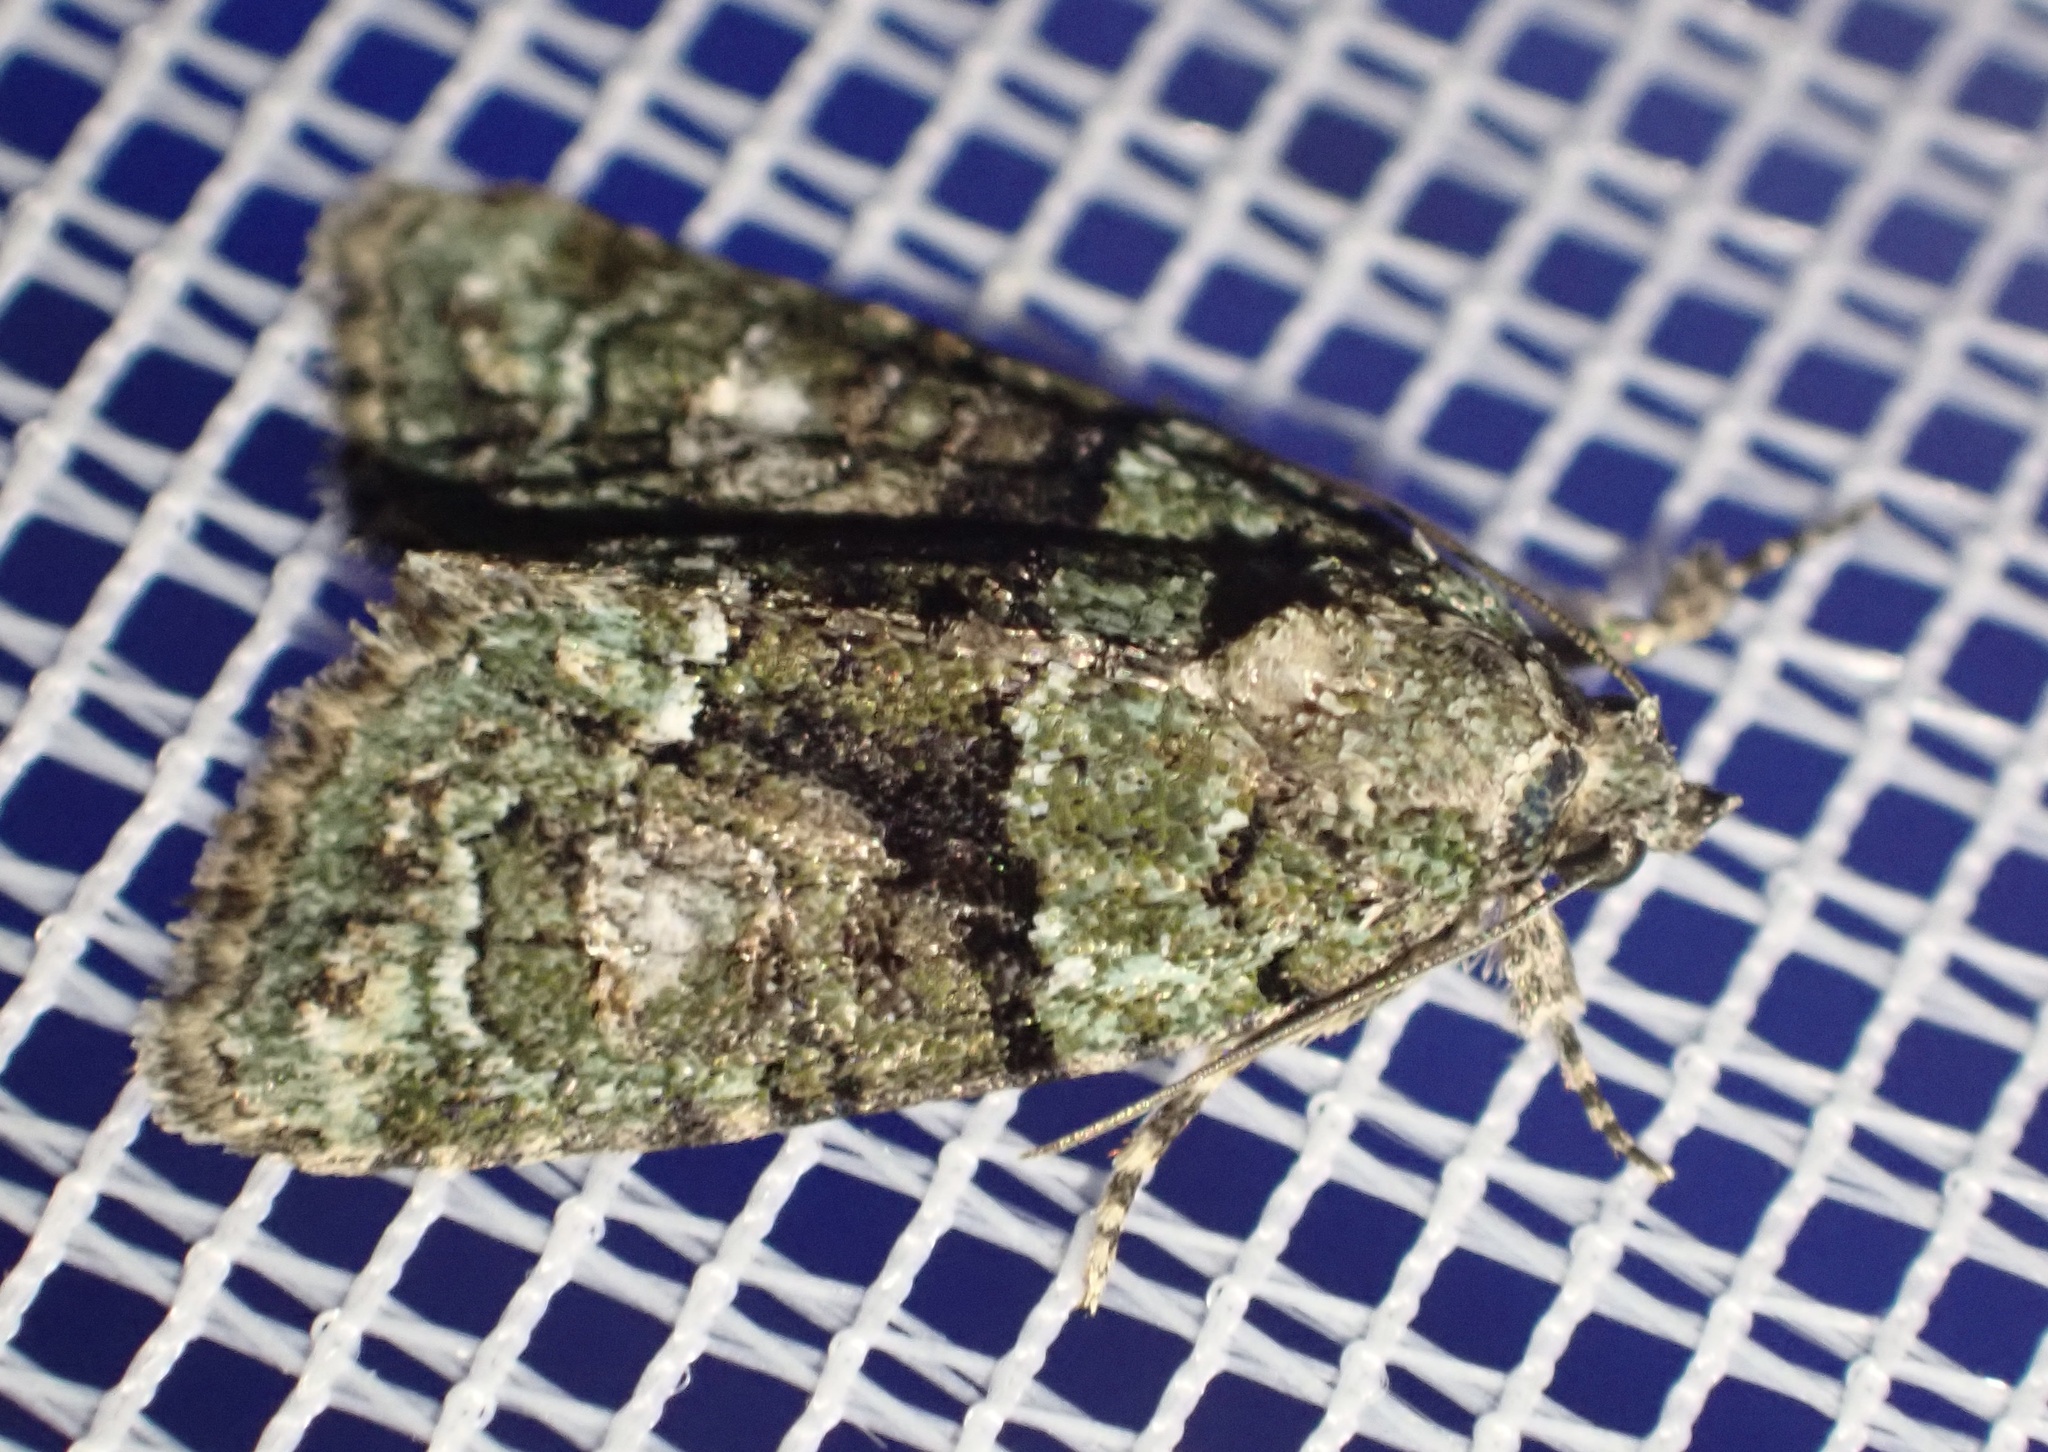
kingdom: Animalia
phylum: Arthropoda
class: Insecta
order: Lepidoptera
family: Noctuidae
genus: Cryphia
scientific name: Cryphia algae
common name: Tree-lichen beauty
